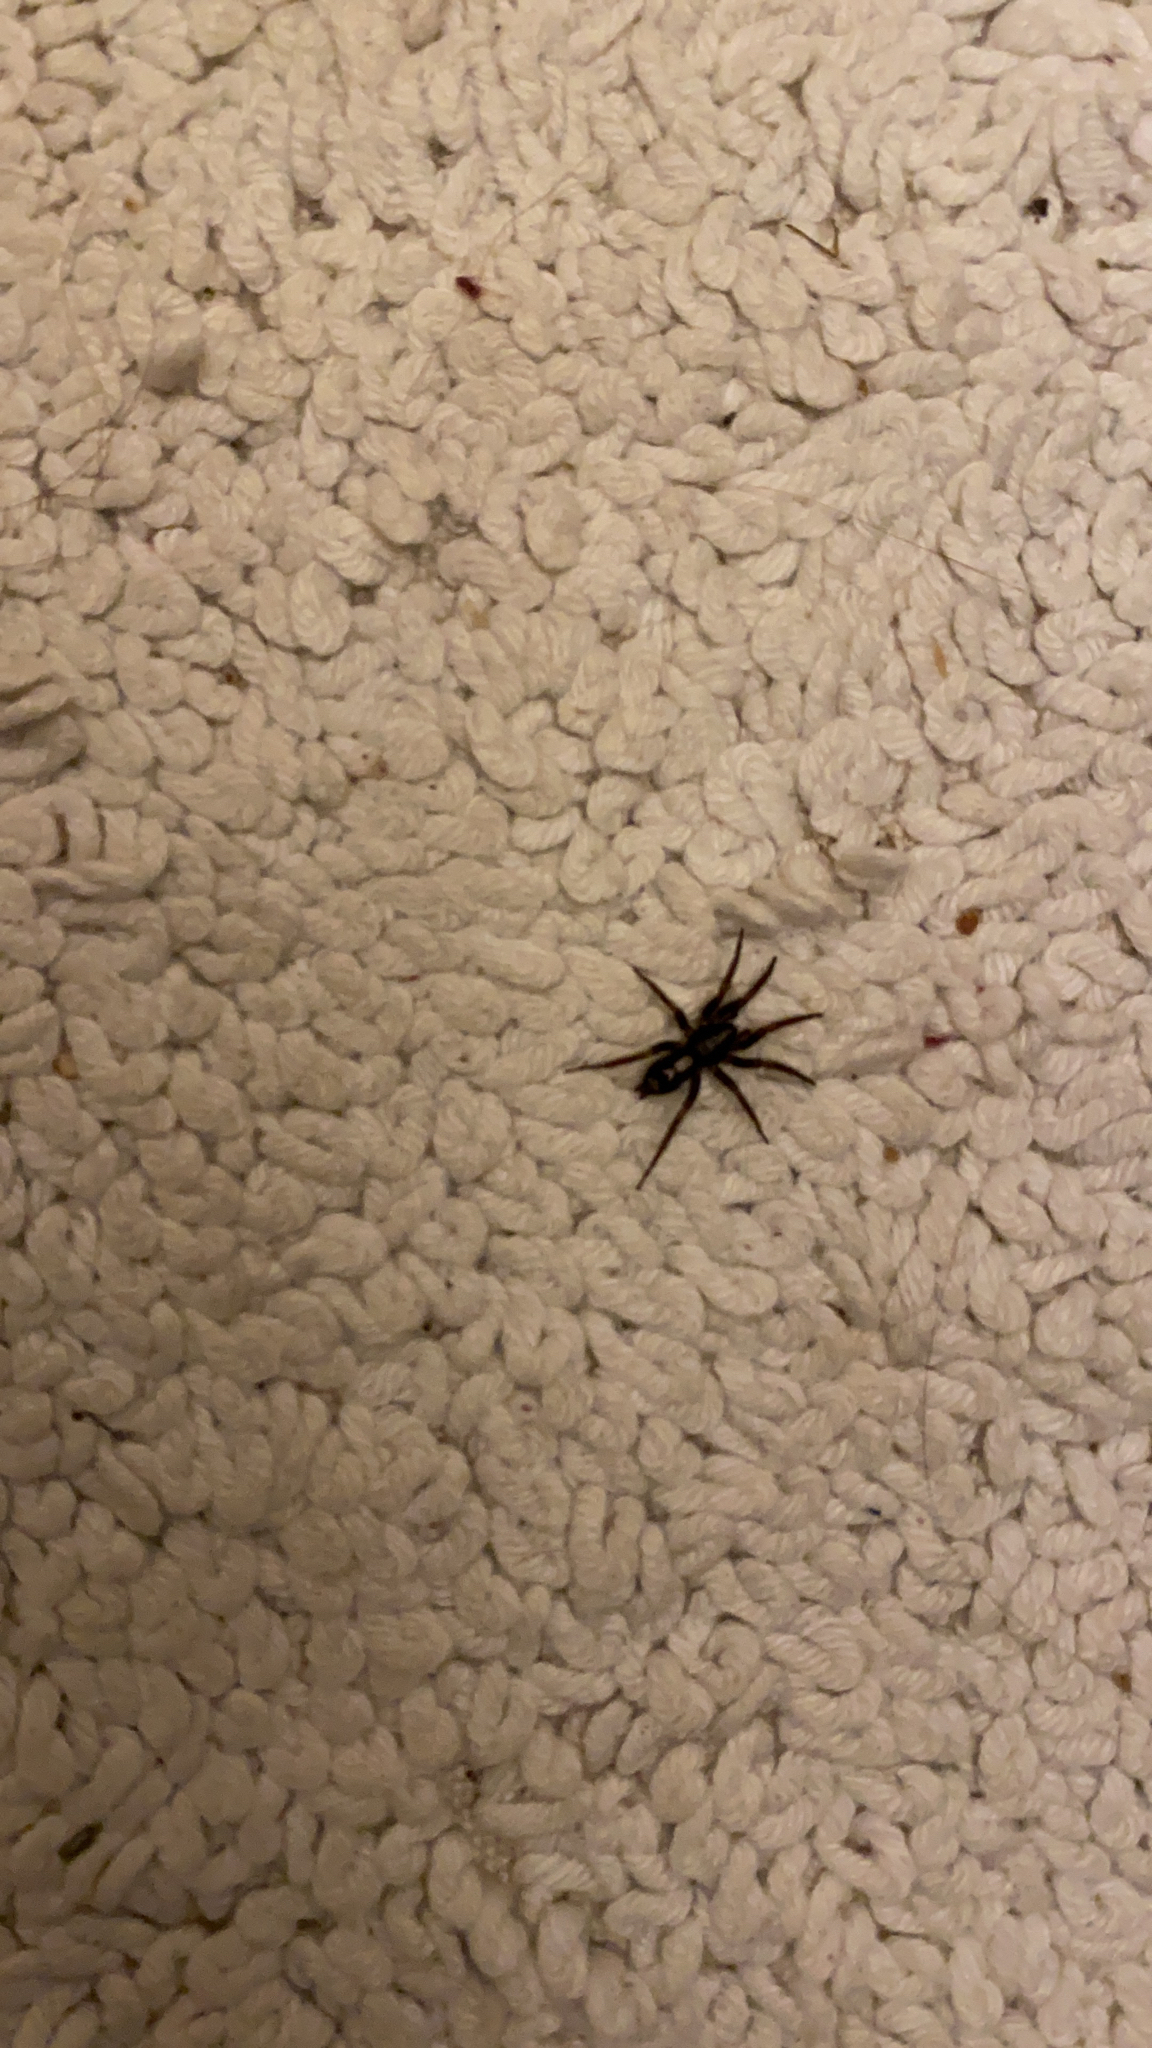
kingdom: Animalia
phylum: Arthropoda
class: Arachnida
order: Araneae
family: Gnaphosidae
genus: Herpyllus
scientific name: Herpyllus ecclesiasticus
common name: Eastern parson spider
